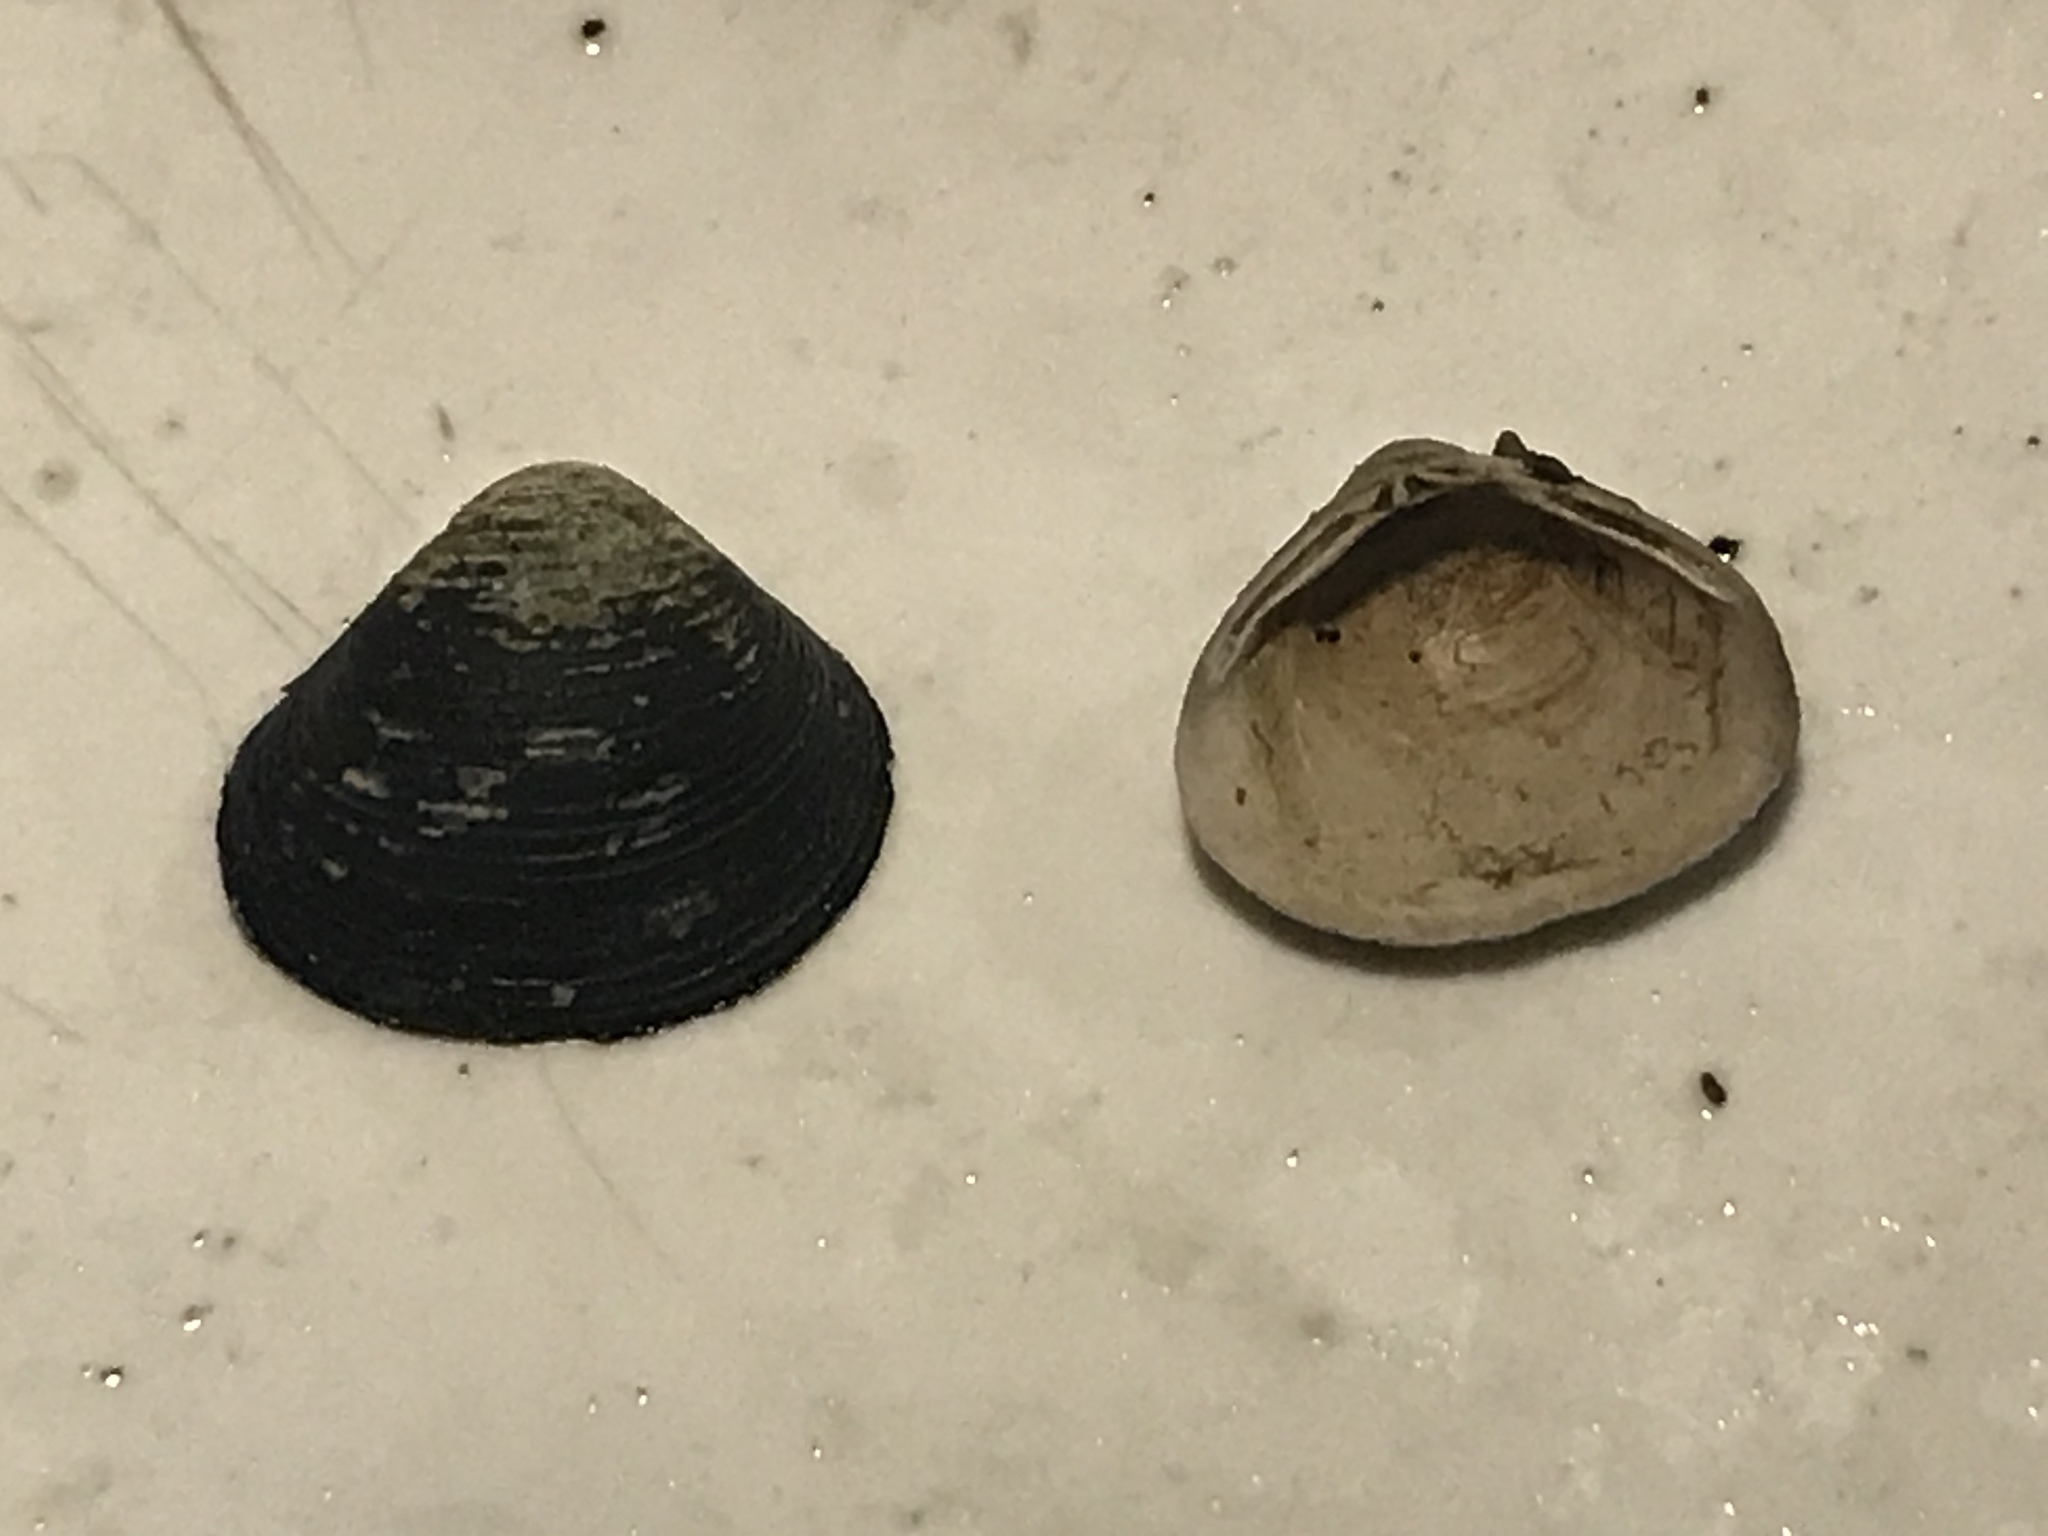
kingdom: Animalia
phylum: Mollusca
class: Bivalvia
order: Venerida
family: Cyrenidae
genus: Corbicula
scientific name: Corbicula fluminea
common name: Asian clam
